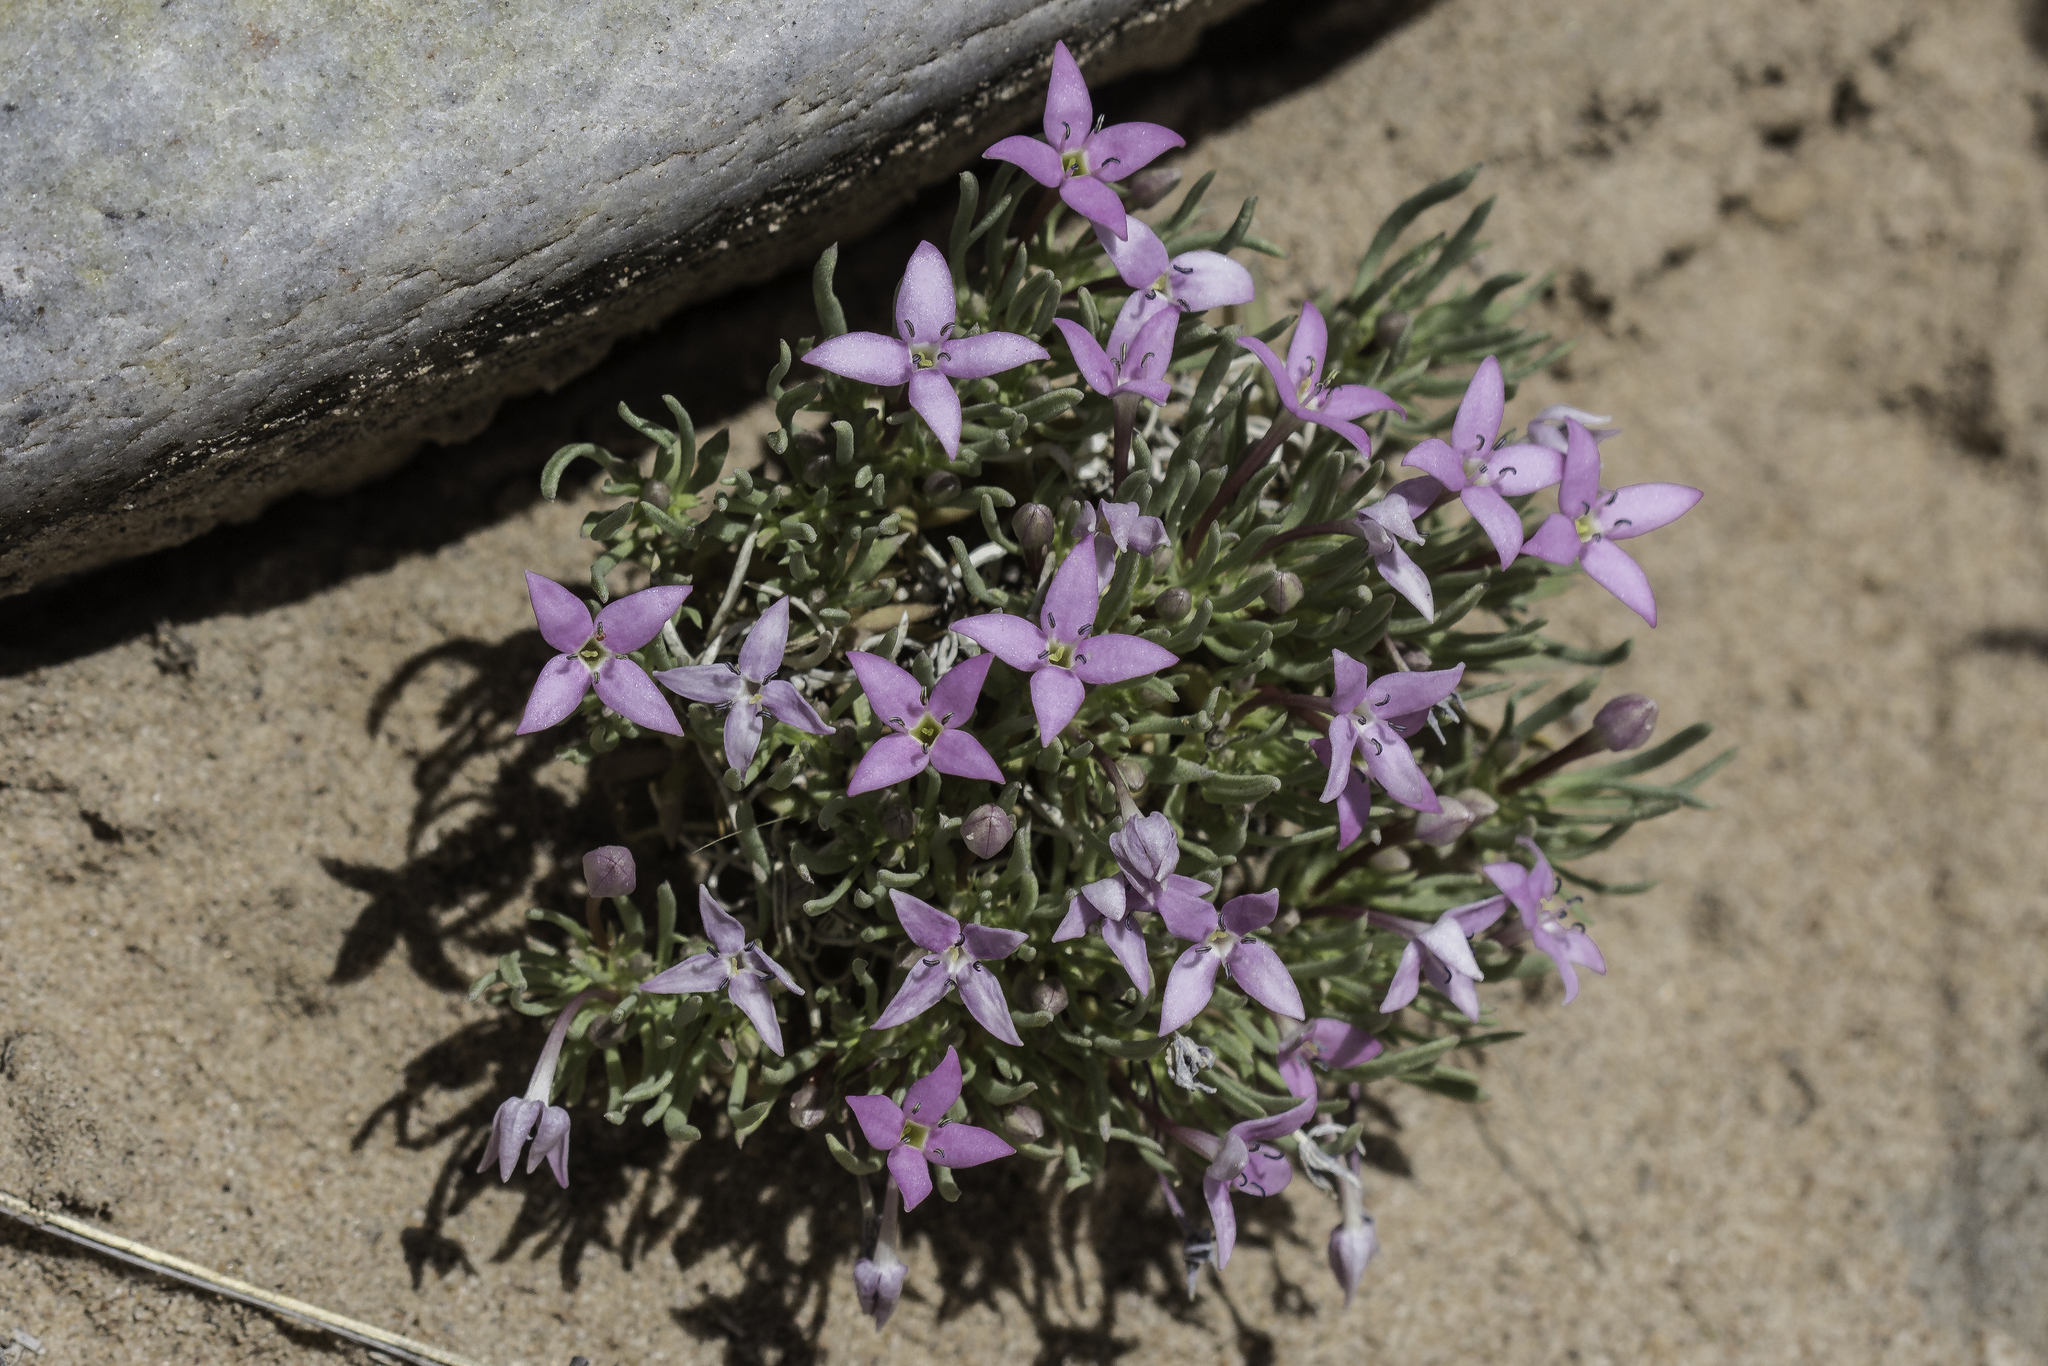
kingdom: Plantae
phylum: Tracheophyta
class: Magnoliopsida
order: Gentianales
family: Rubiaceae
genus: Houstonia
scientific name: Houstonia rubra
